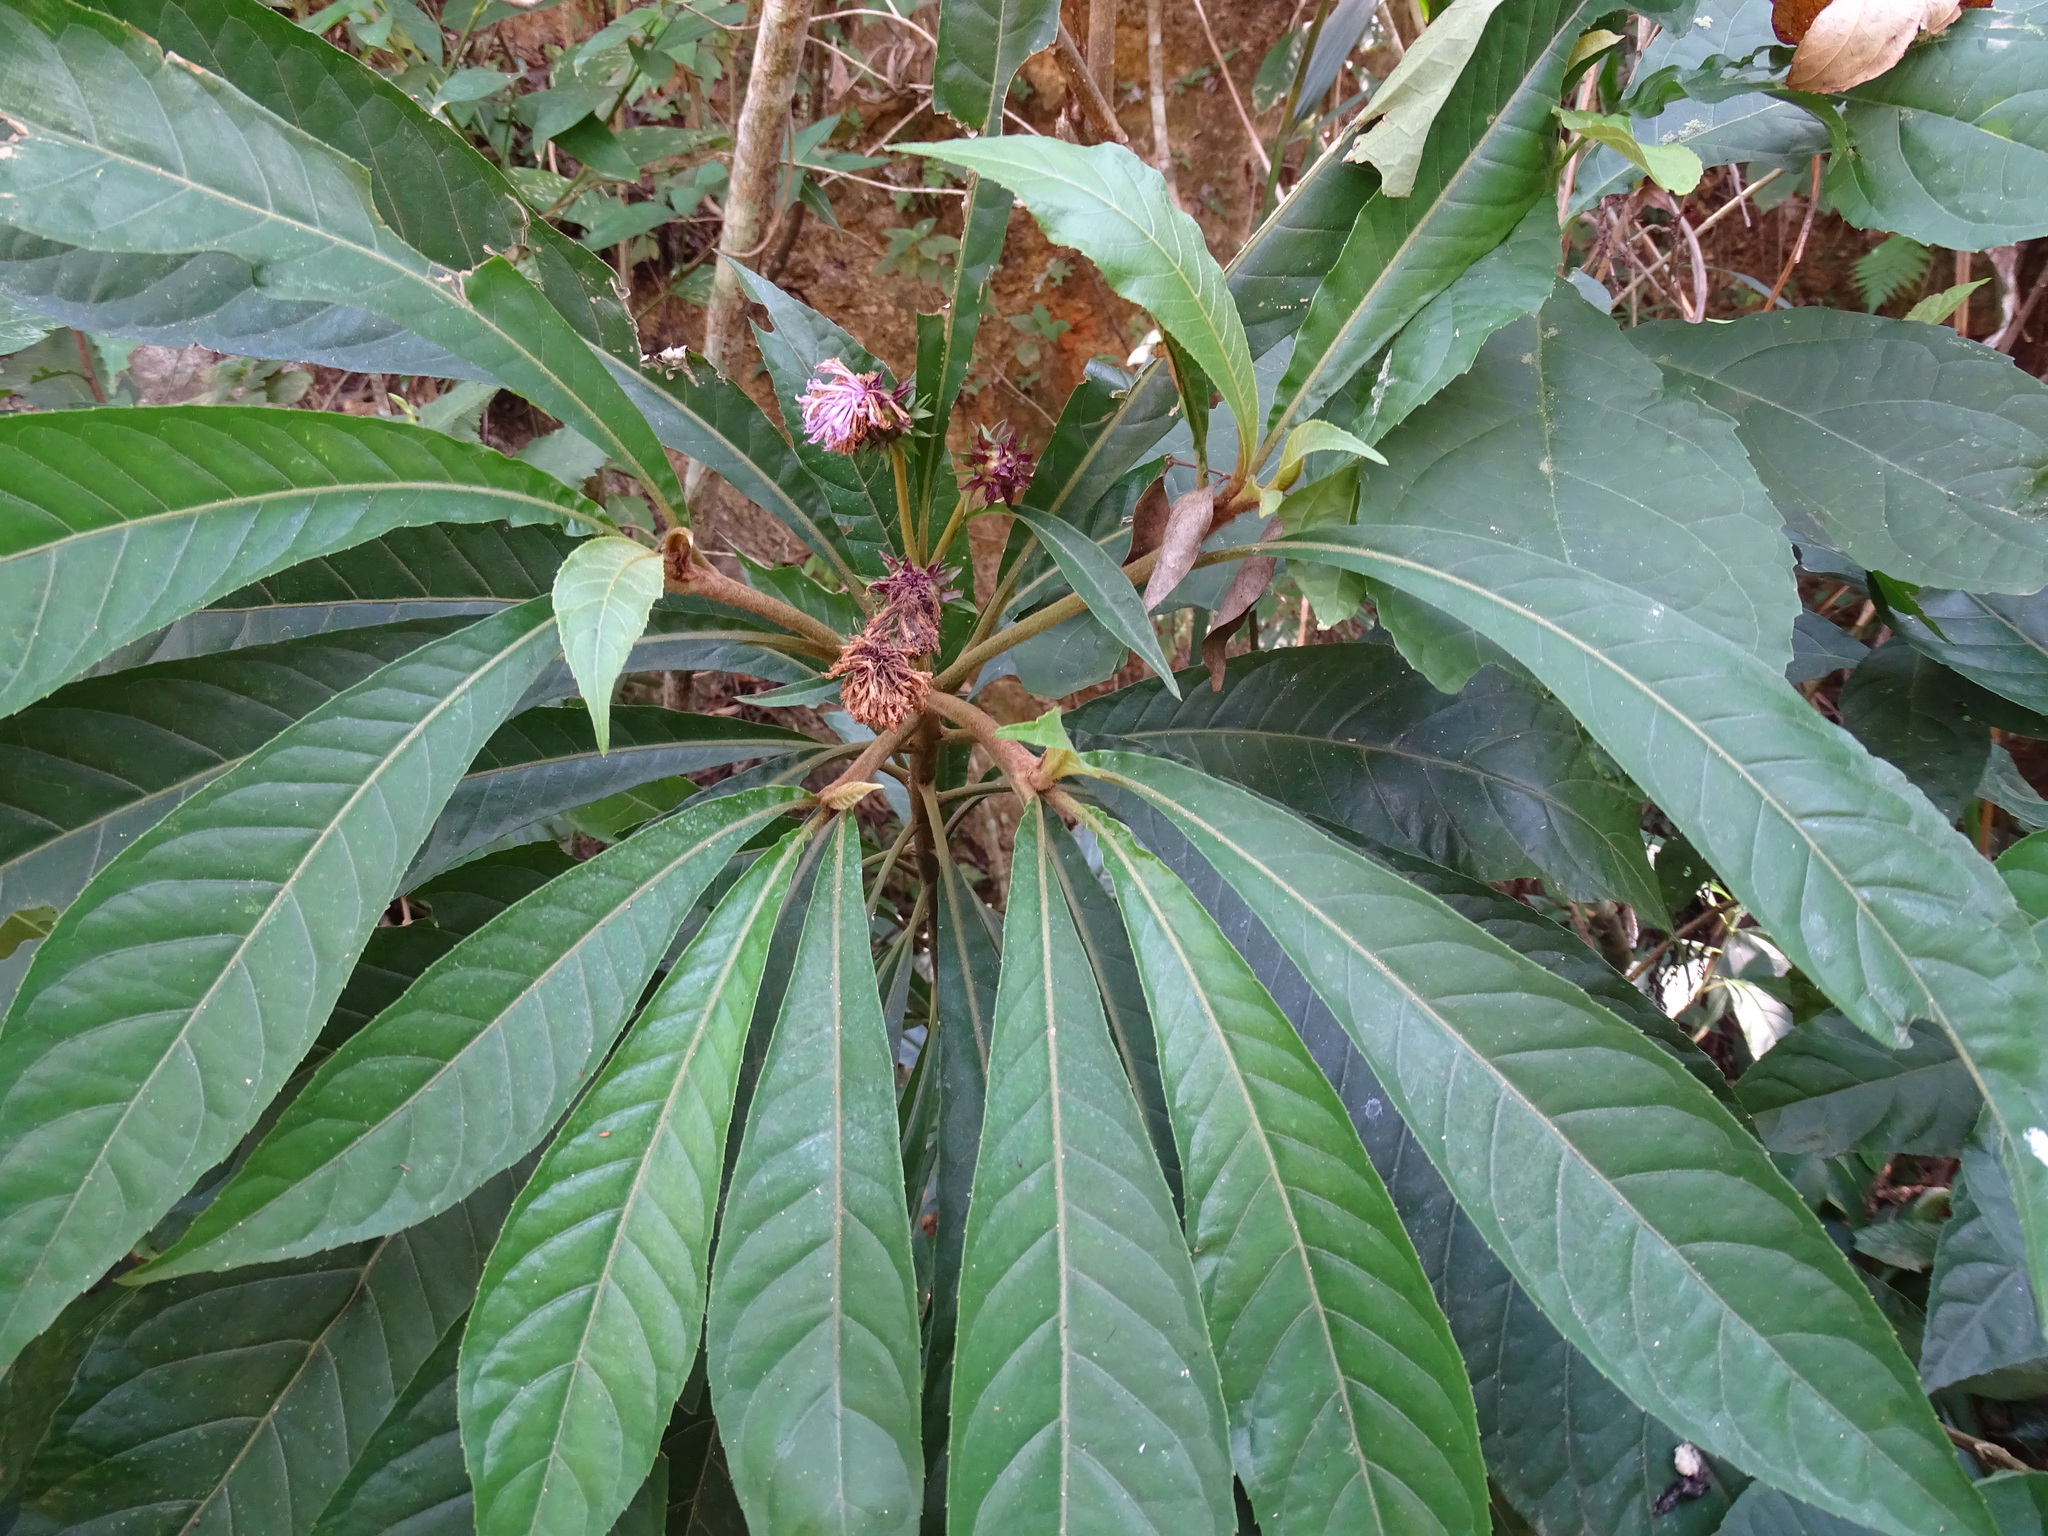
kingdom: Plantae
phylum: Tracheophyta
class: Magnoliopsida
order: Asterales
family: Asteraceae
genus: Lepidonia
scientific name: Lepidonia salvinae
